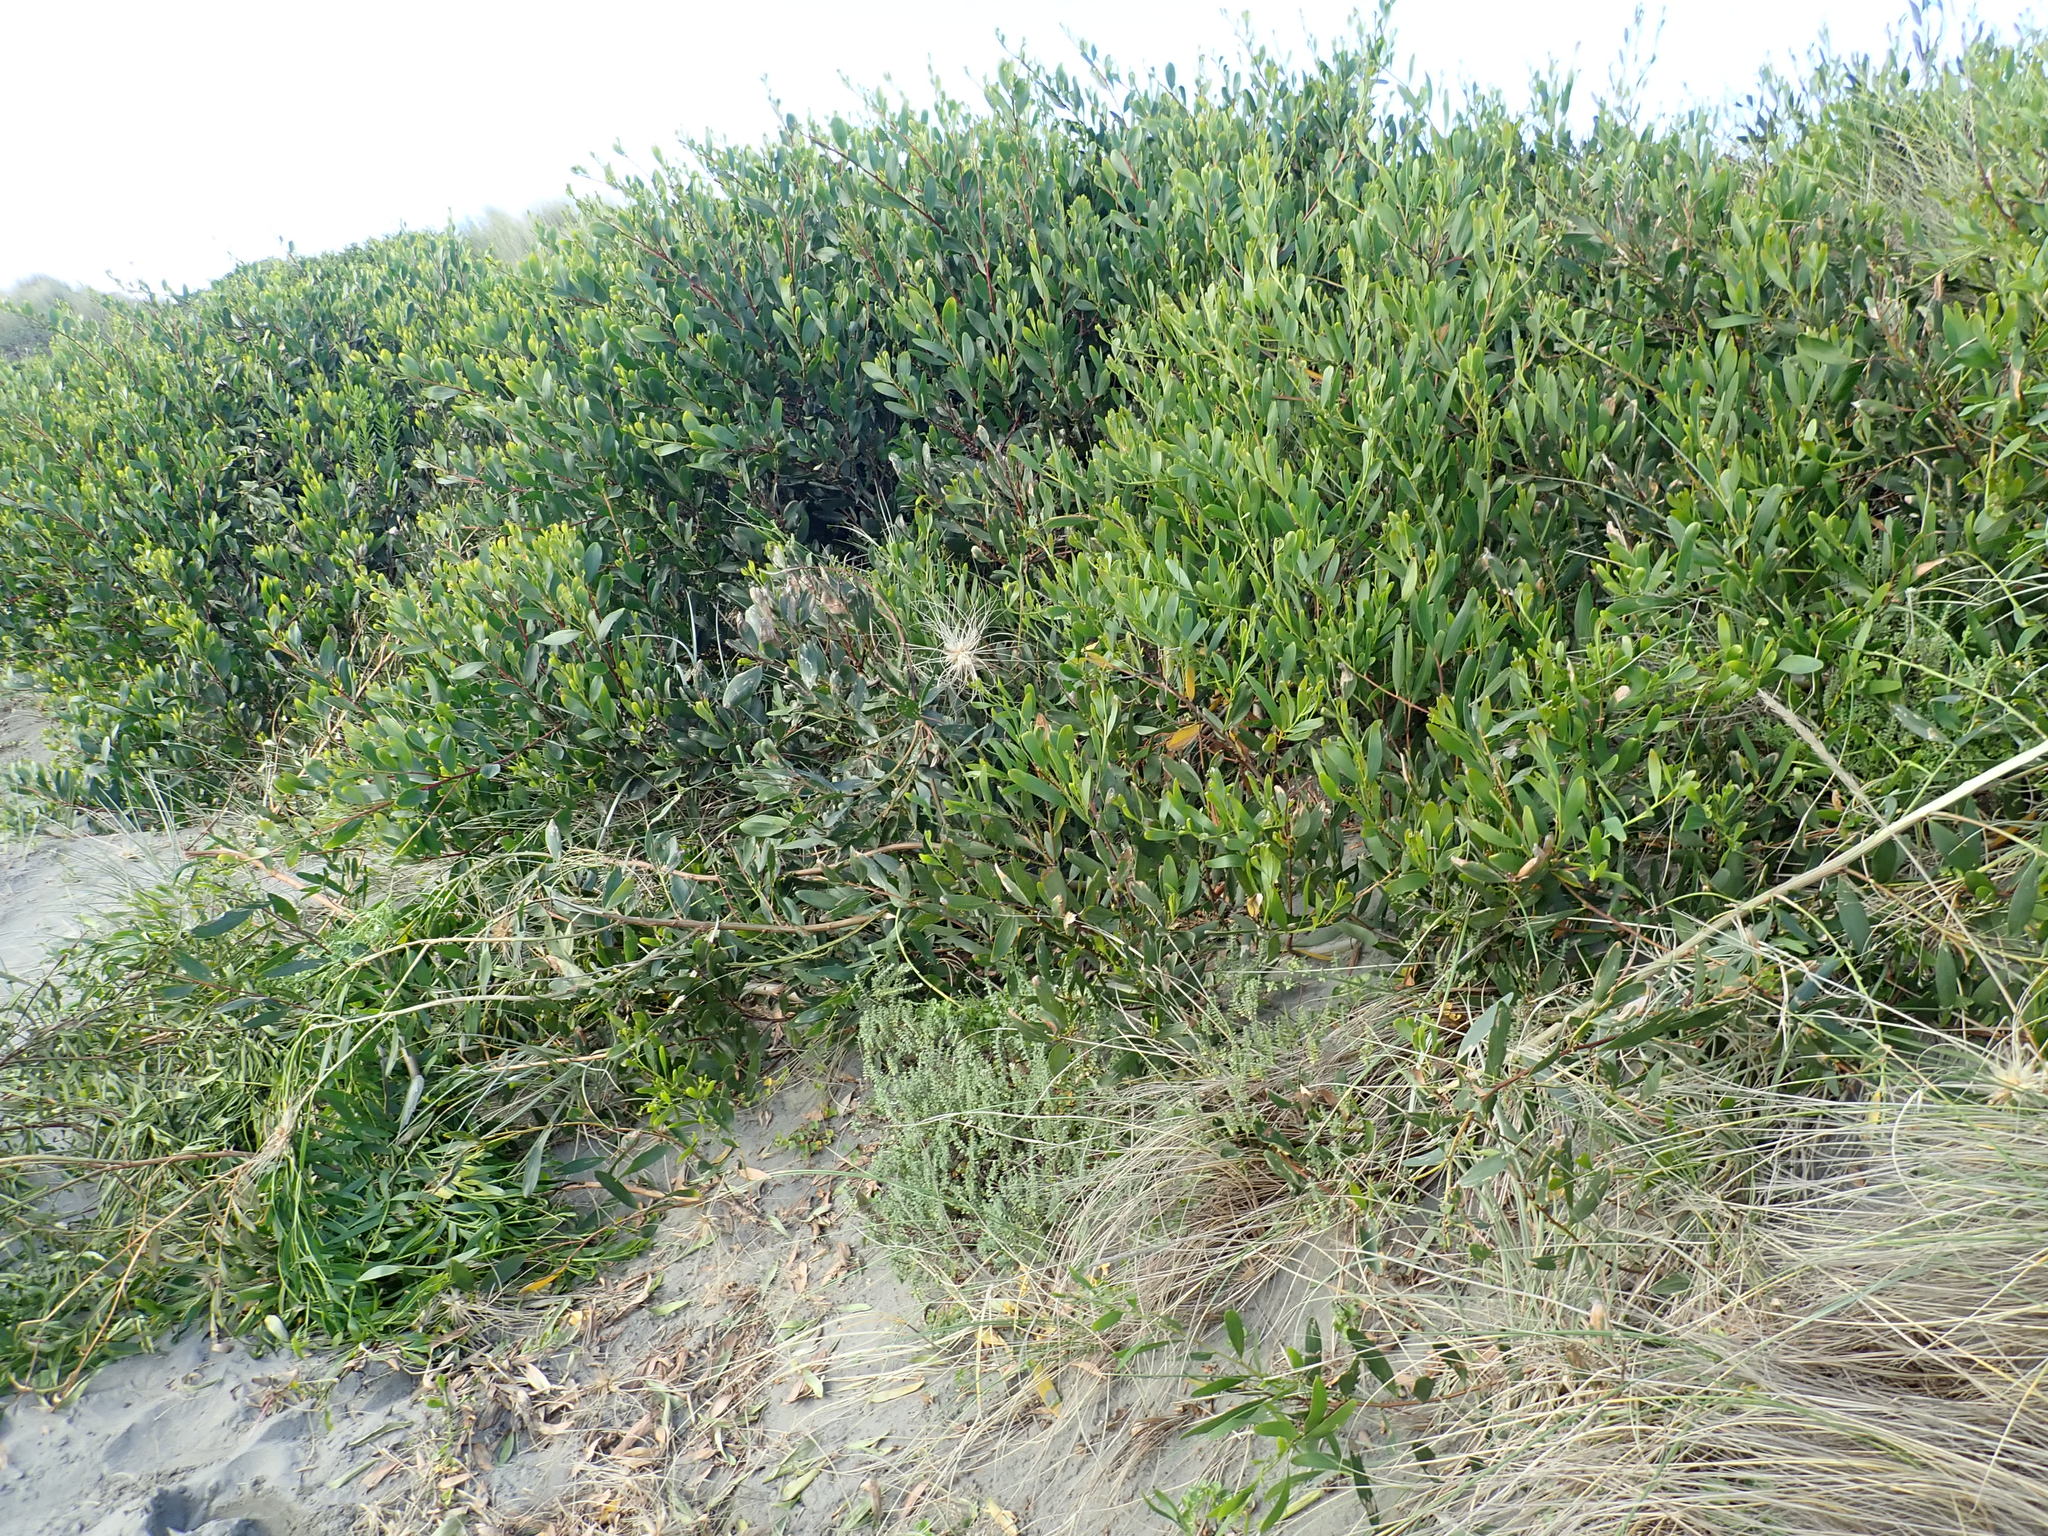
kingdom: Plantae
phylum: Tracheophyta
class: Magnoliopsida
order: Fabales
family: Fabaceae
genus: Acacia
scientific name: Acacia longifolia
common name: Sydney golden wattle
